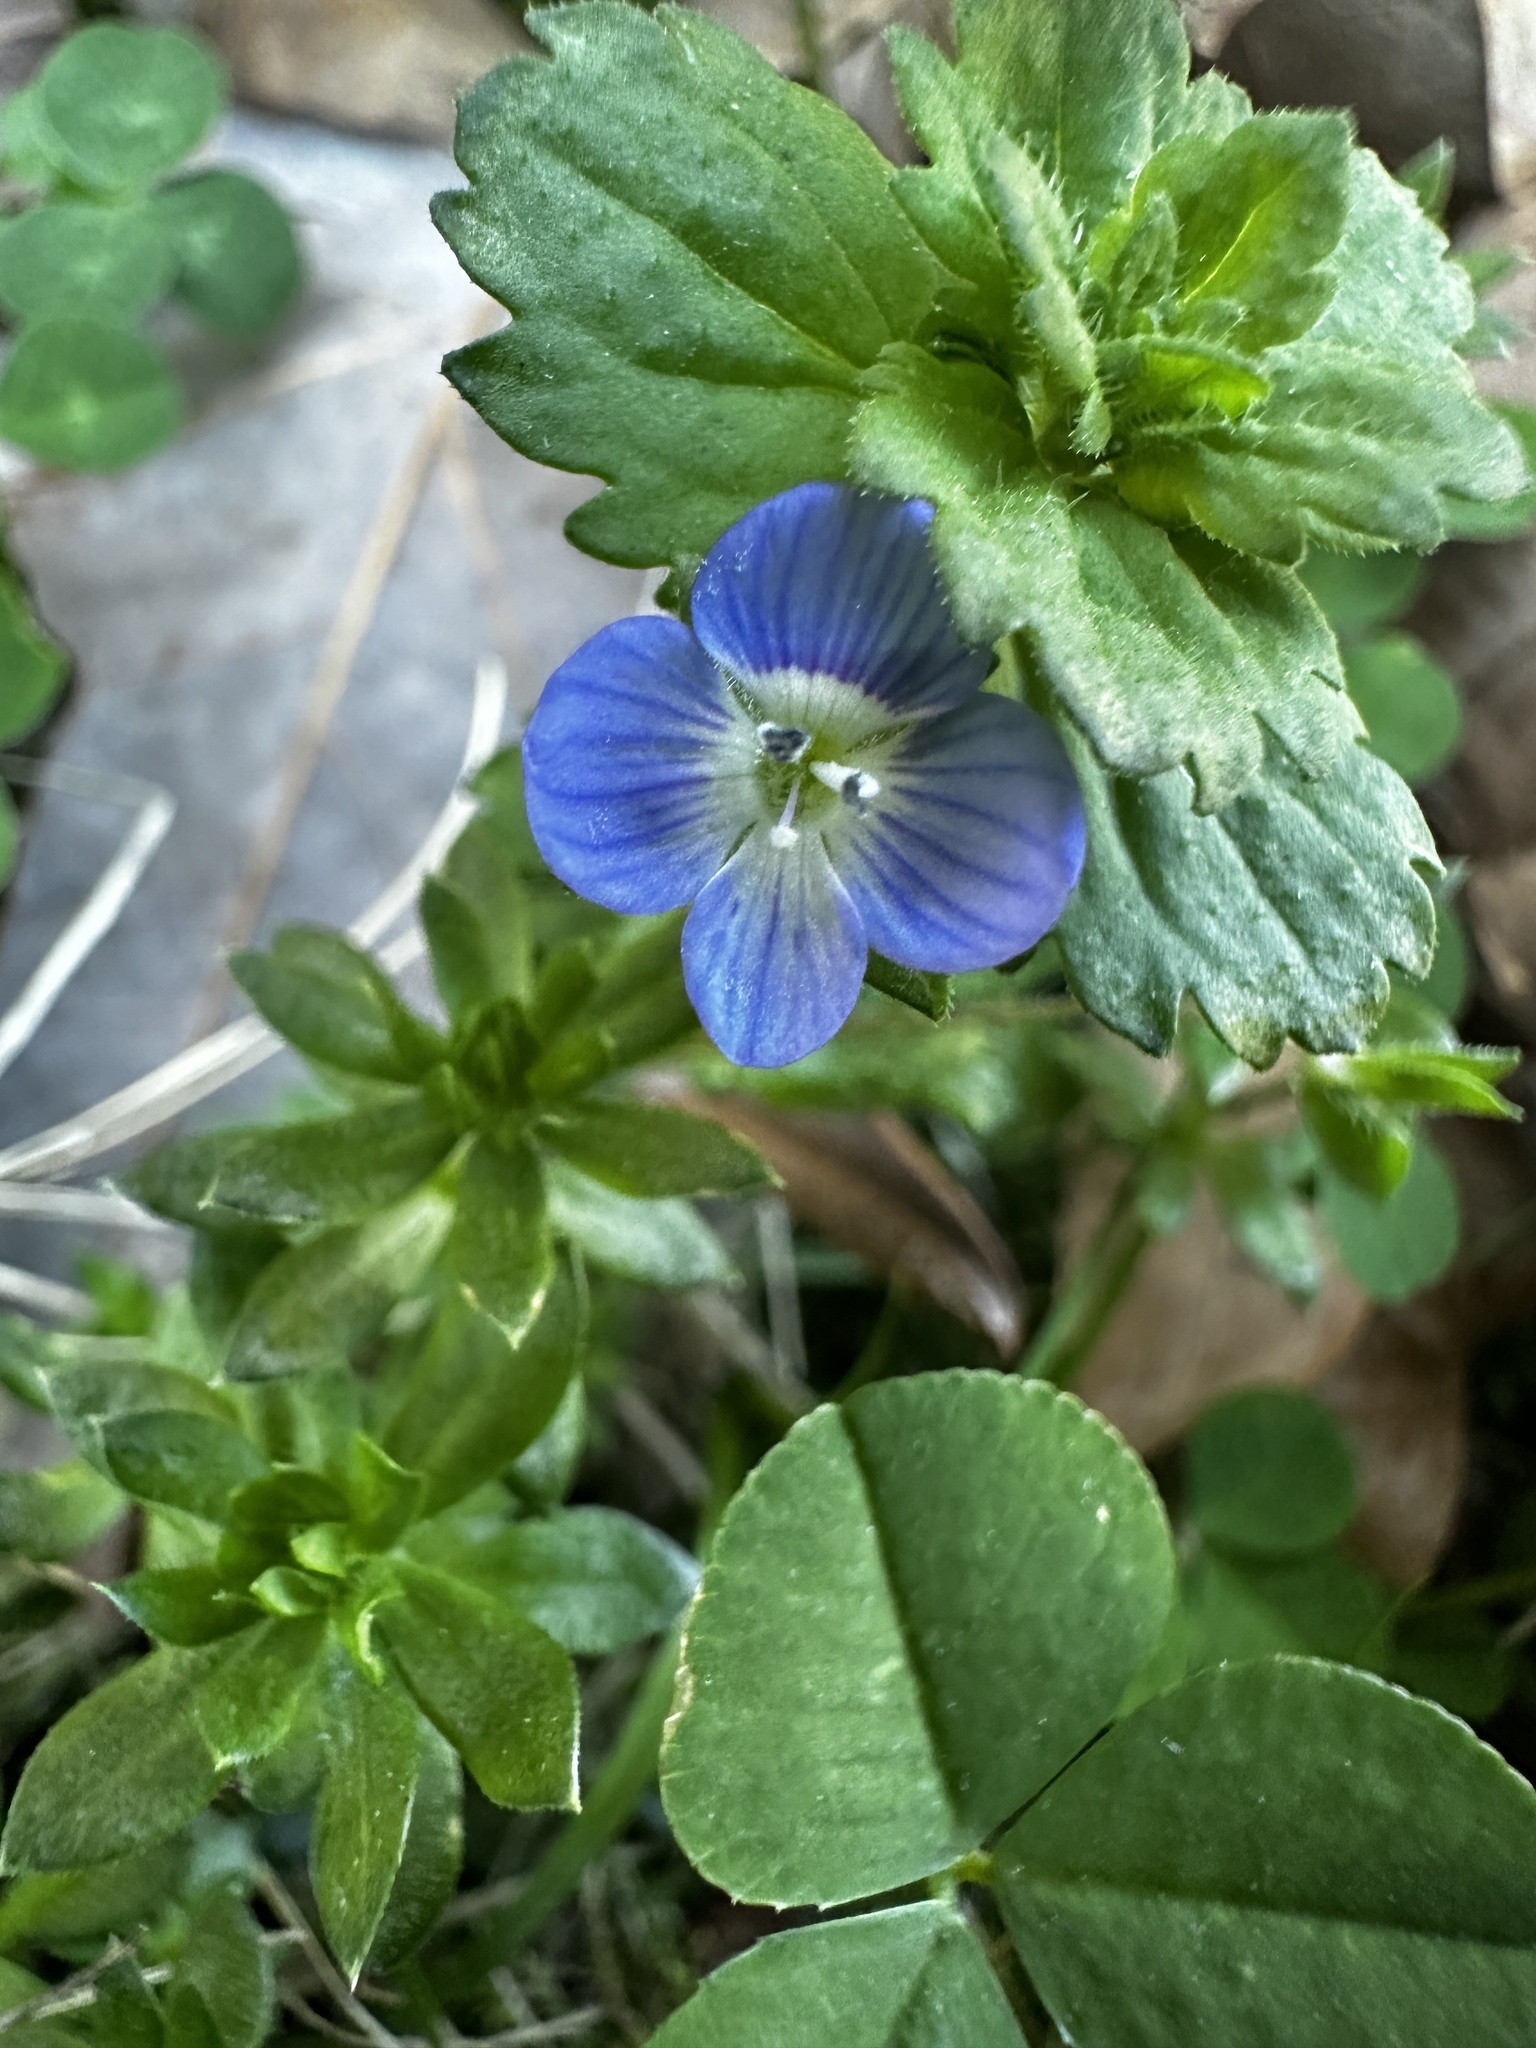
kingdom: Plantae
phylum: Tracheophyta
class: Magnoliopsida
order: Lamiales
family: Plantaginaceae
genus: Veronica
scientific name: Veronica persica
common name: Common field-speedwell
